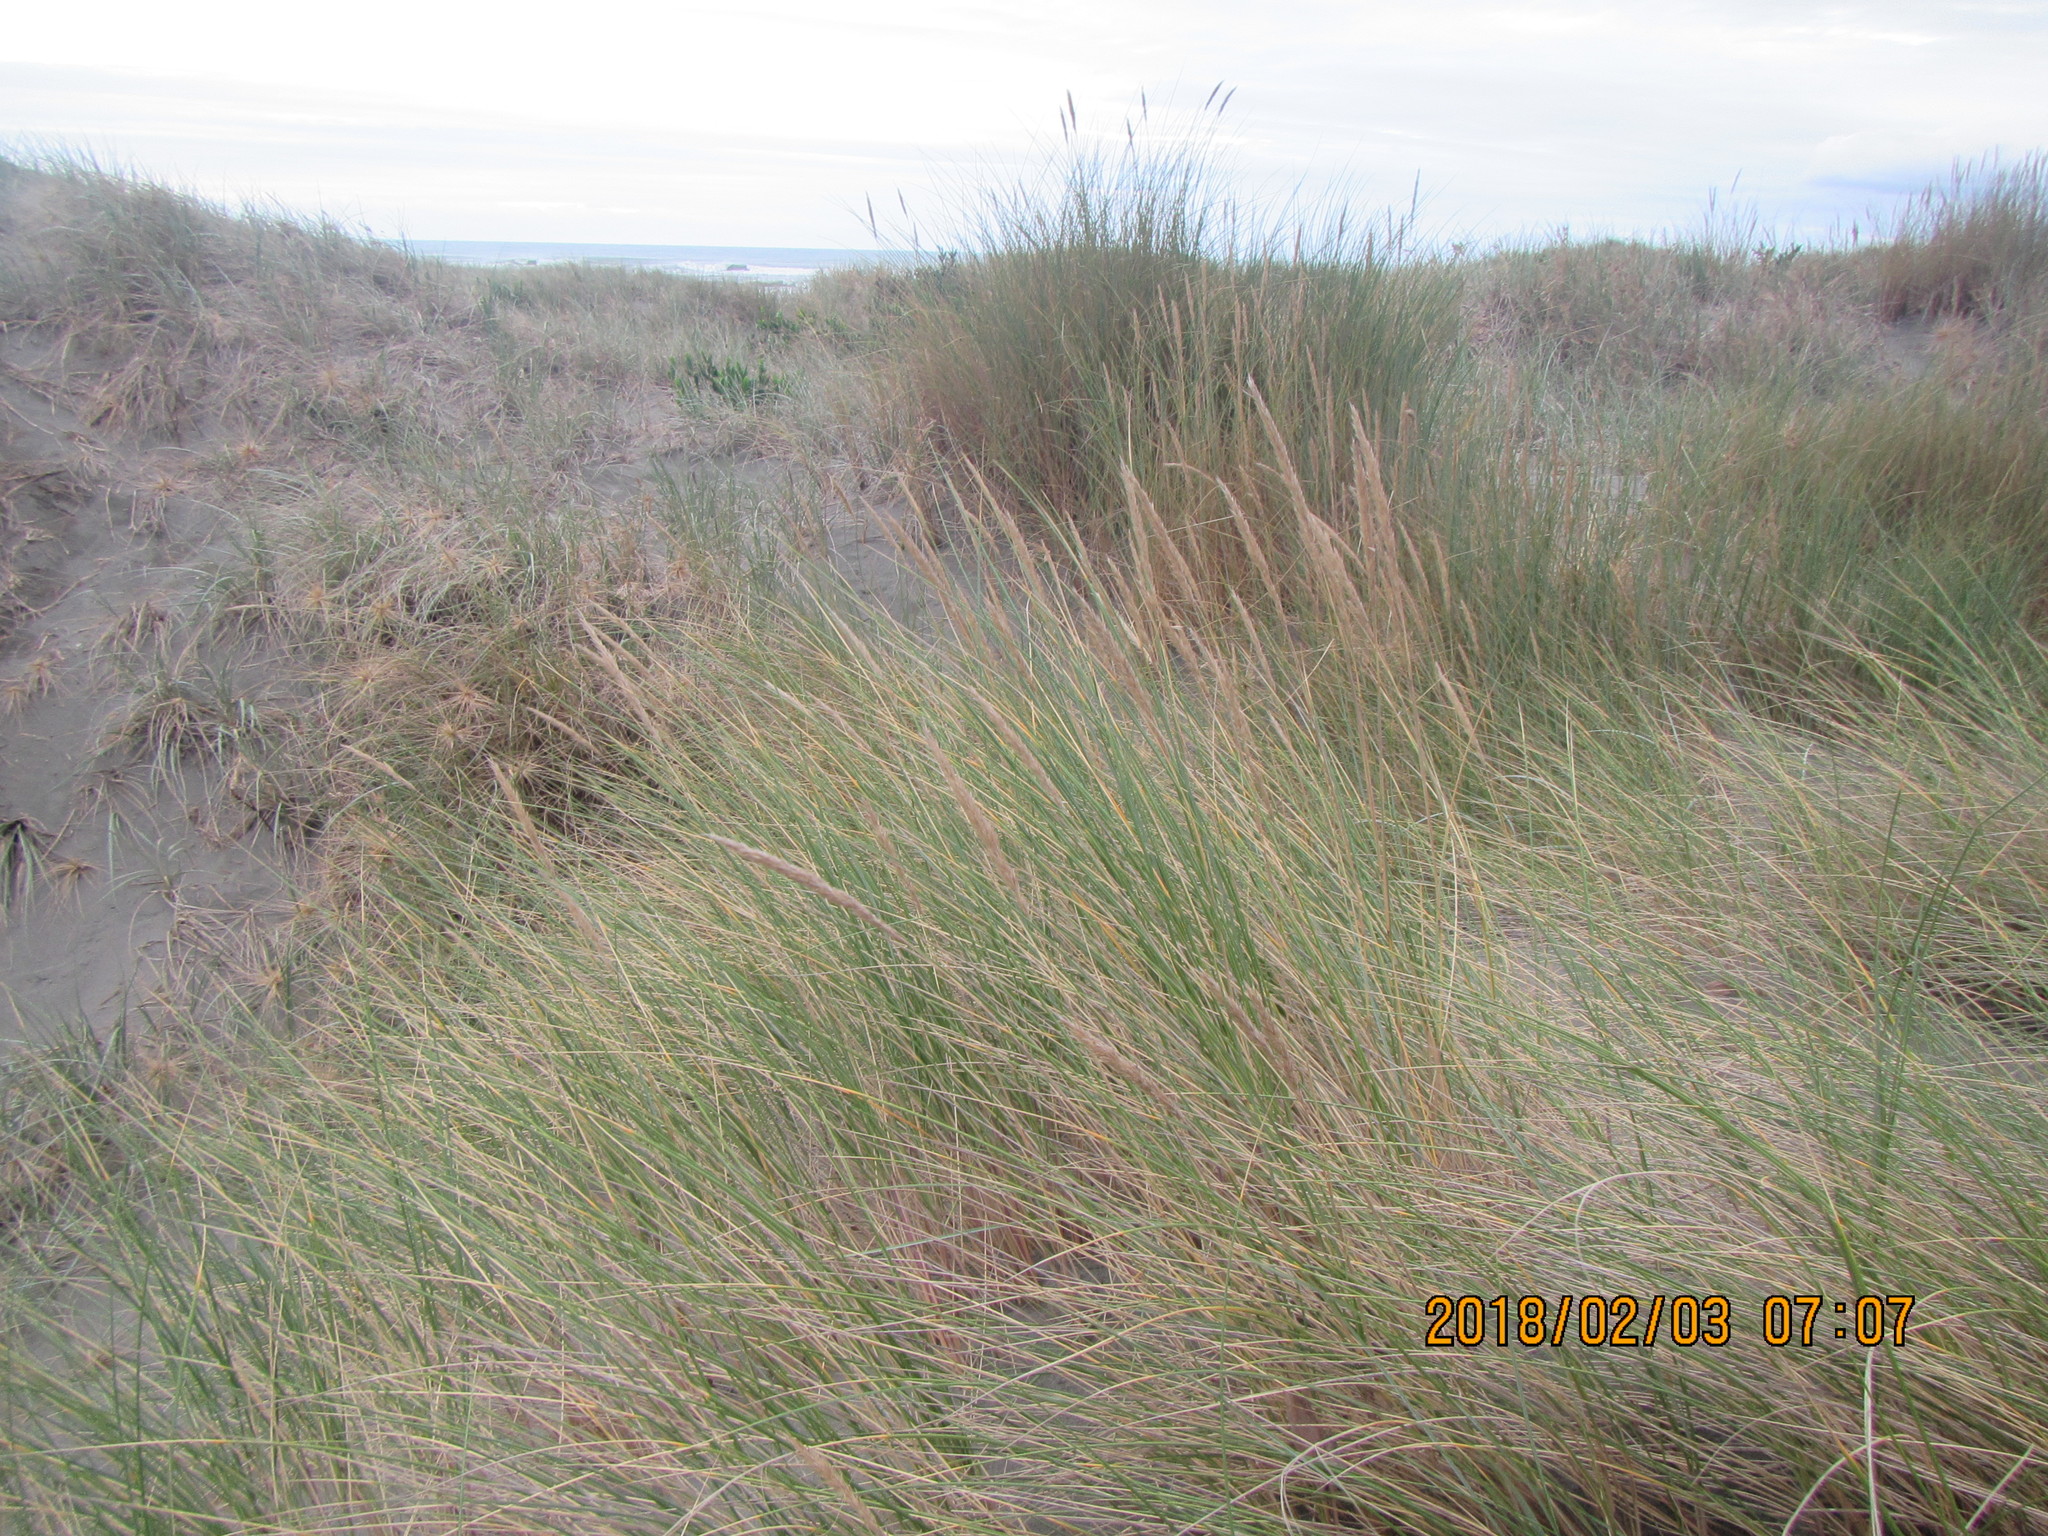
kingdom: Plantae
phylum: Tracheophyta
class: Liliopsida
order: Poales
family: Poaceae
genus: Calamagrostis
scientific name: Calamagrostis arenaria
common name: European beachgrass
